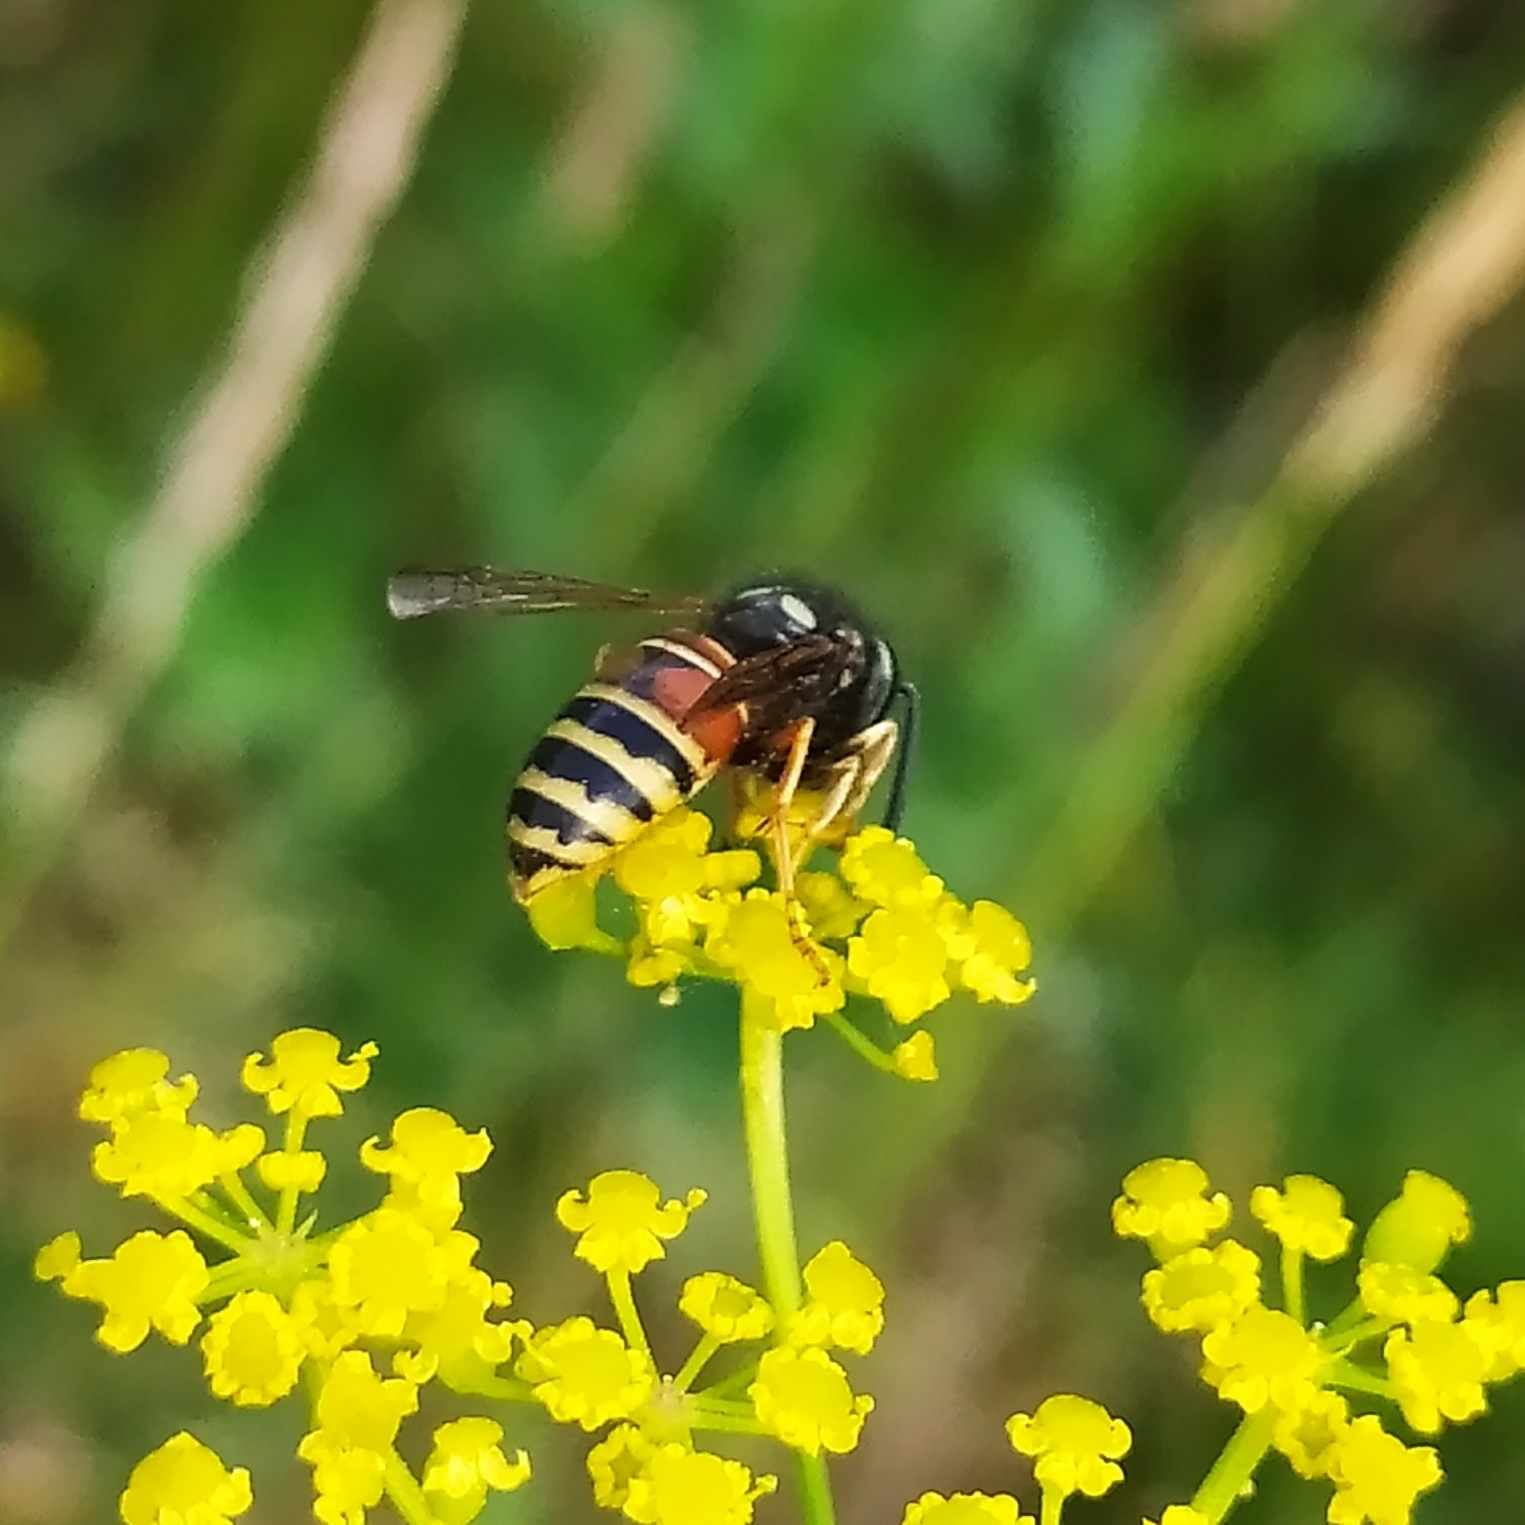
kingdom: Animalia
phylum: Arthropoda
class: Insecta
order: Hymenoptera
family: Vespidae
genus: Vespula
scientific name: Vespula rufa
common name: Red wasp
